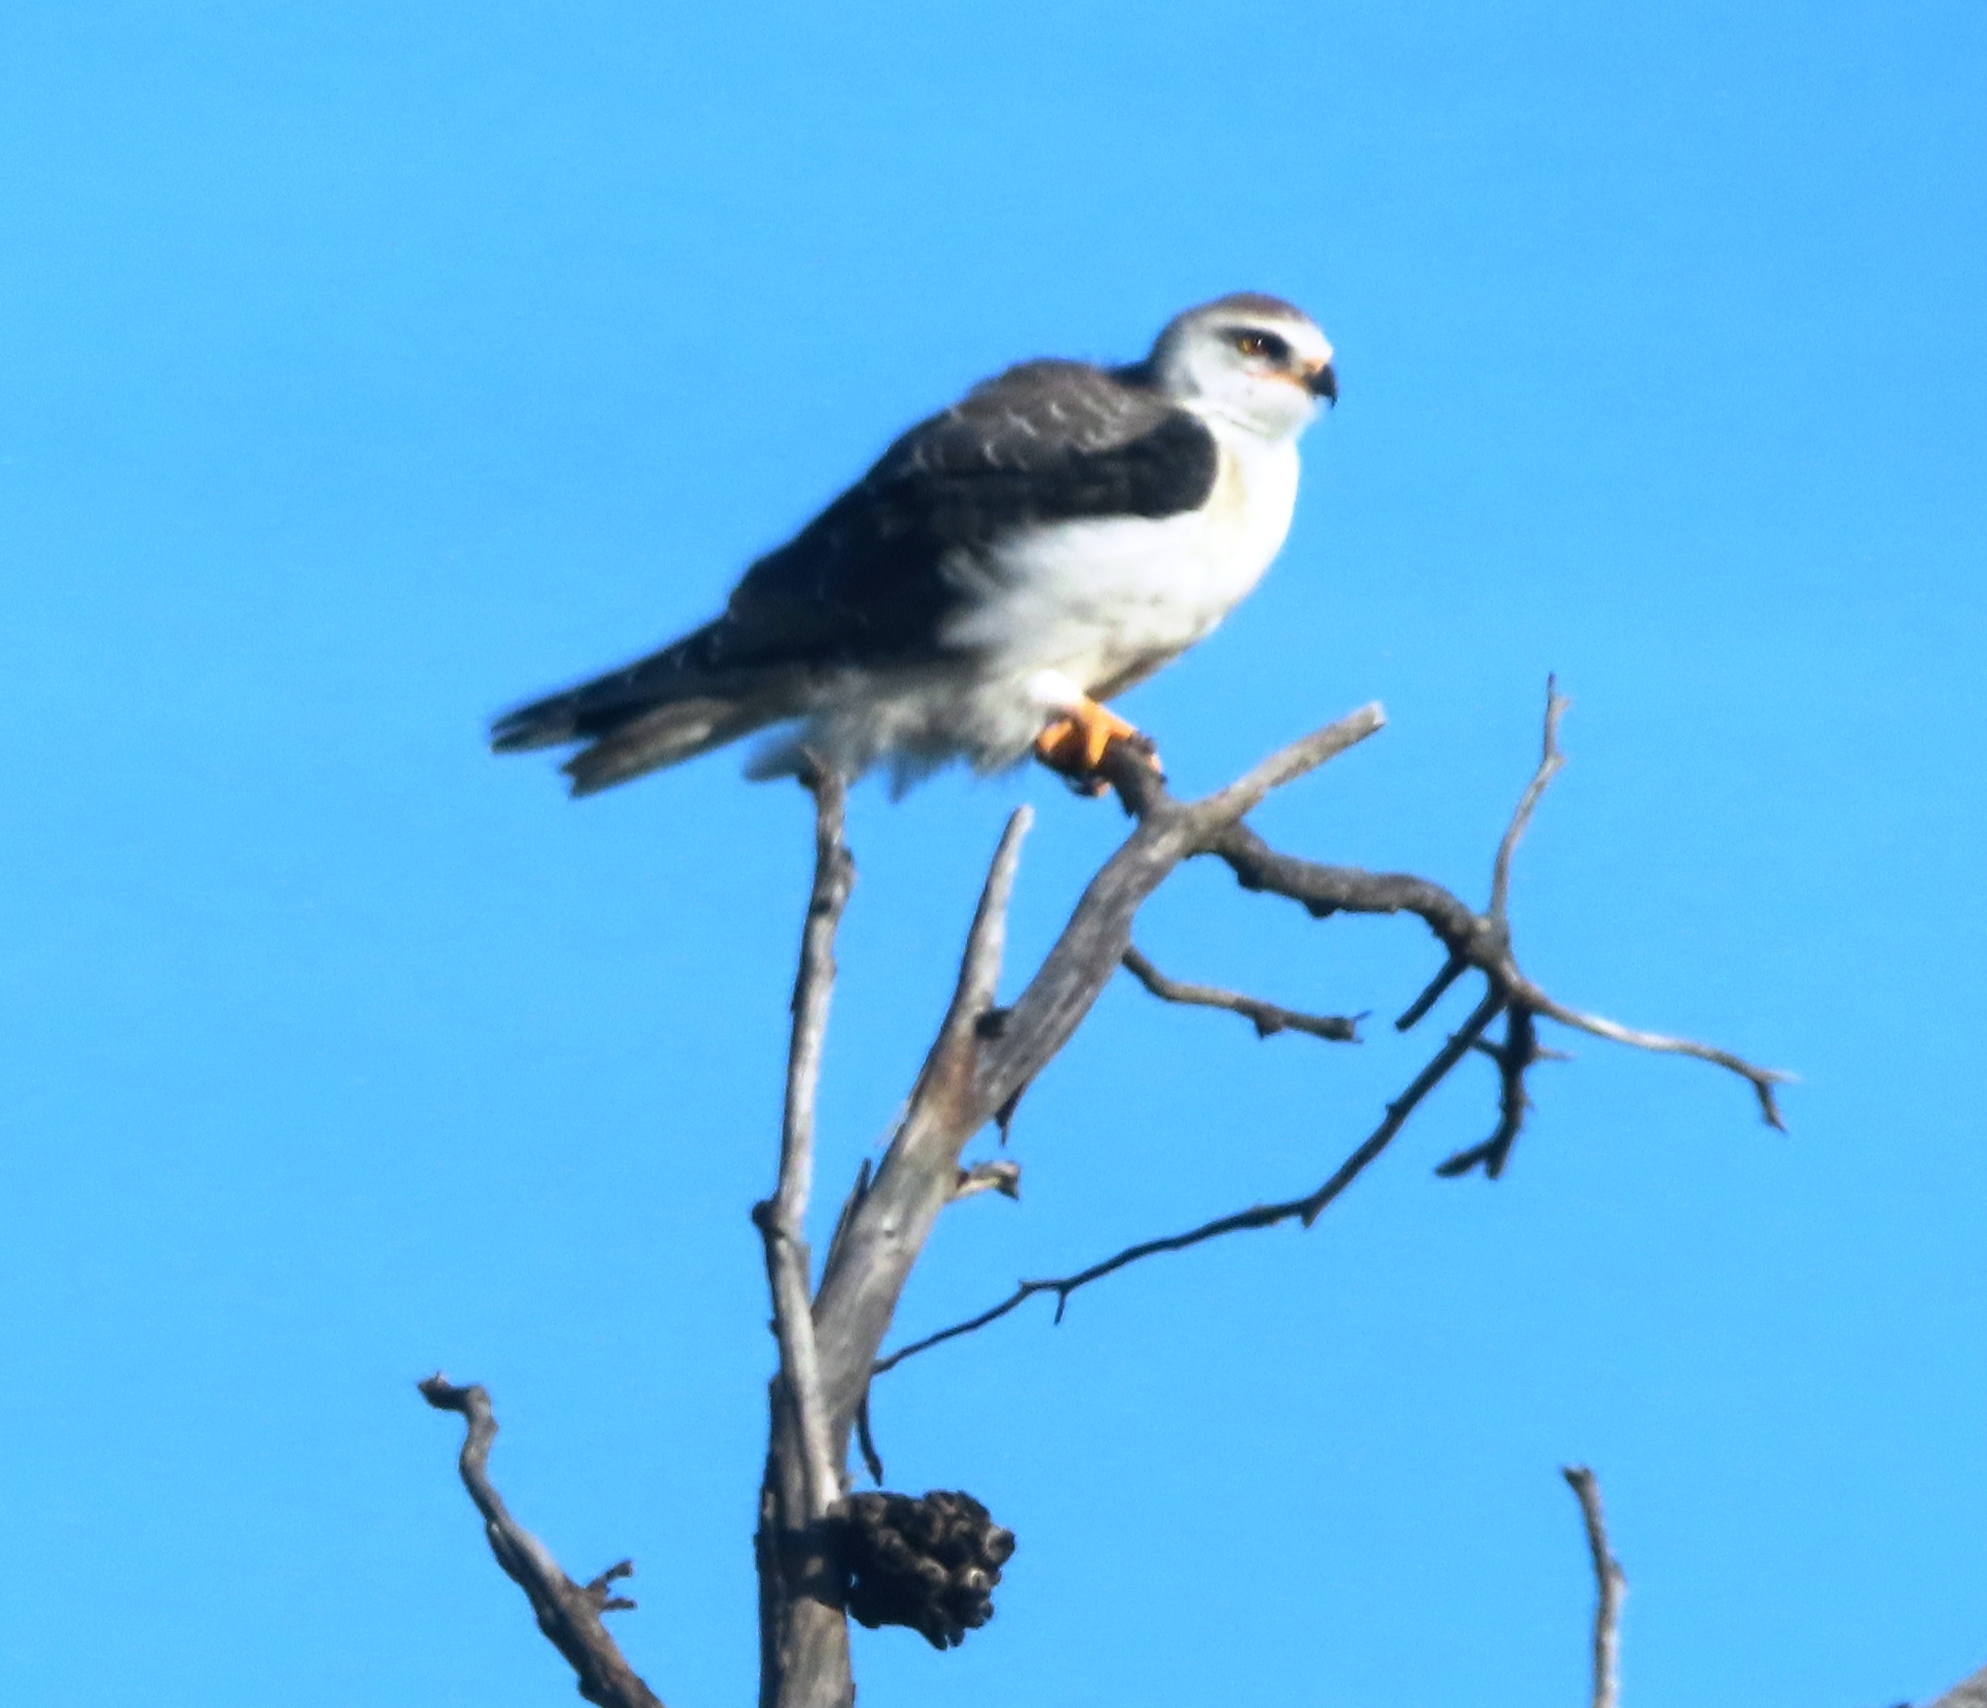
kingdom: Animalia
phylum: Chordata
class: Aves
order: Accipitriformes
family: Accipitridae
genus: Elanus
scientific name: Elanus caeruleus
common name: Black-winged kite
